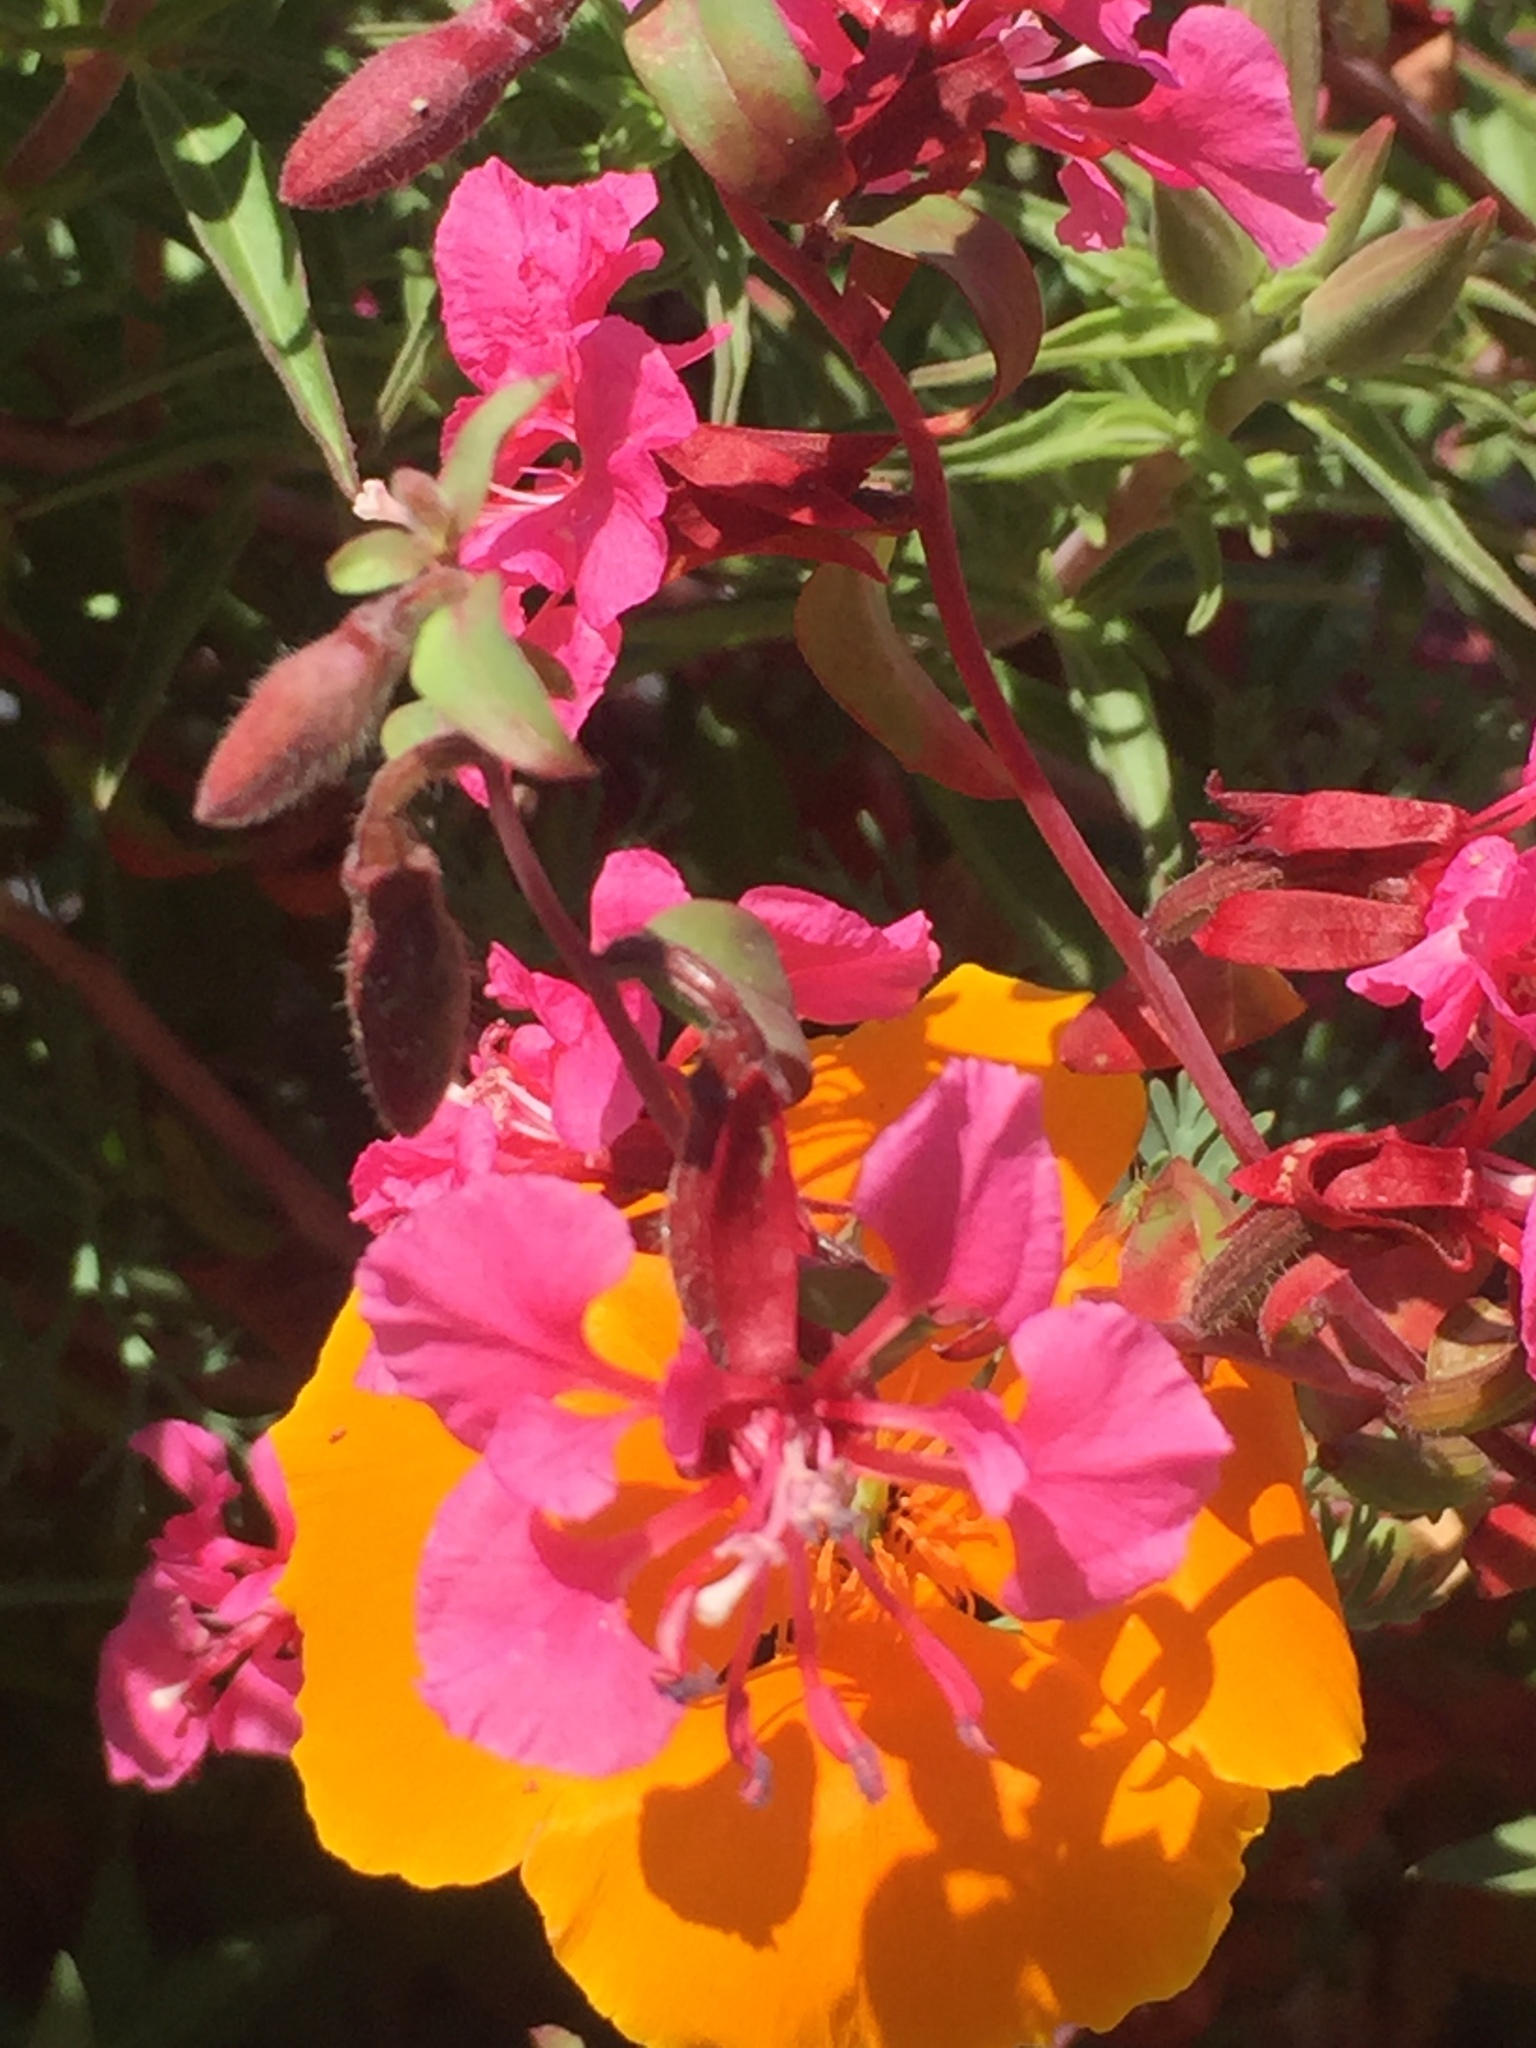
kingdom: Plantae
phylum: Tracheophyta
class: Magnoliopsida
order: Myrtales
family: Onagraceae
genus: Clarkia
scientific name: Clarkia unguiculata
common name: Clarkia
